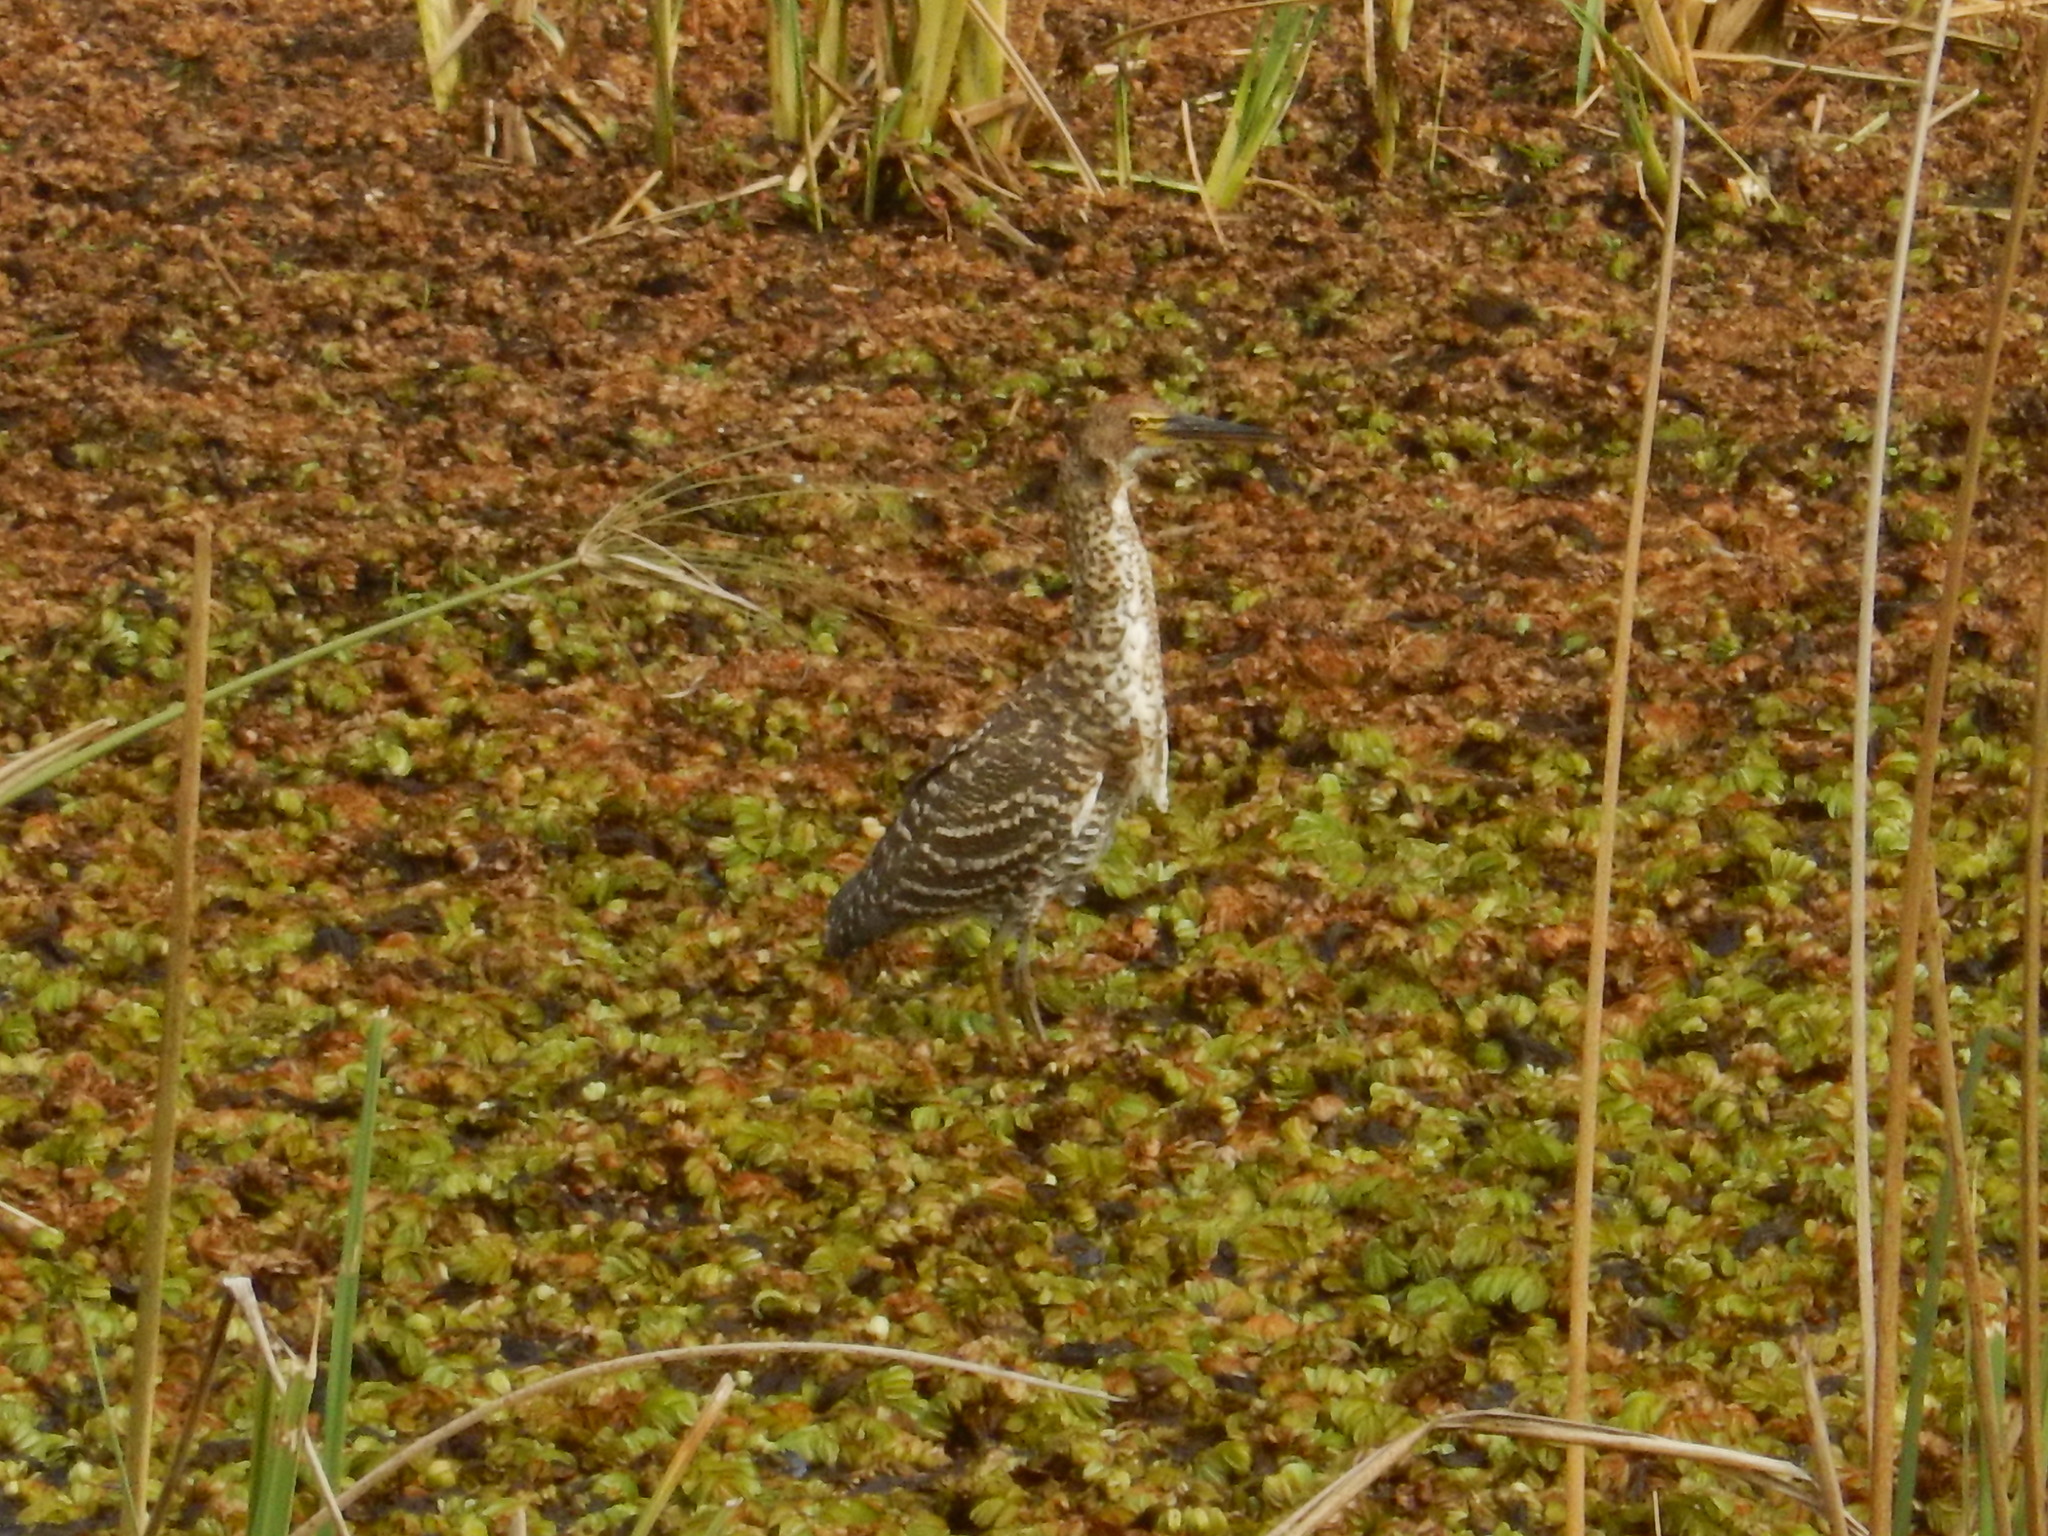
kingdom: Animalia
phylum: Chordata
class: Aves
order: Pelecaniformes
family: Ardeidae
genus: Tigrisoma
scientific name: Tigrisoma lineatum
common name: Rufescent tiger-heron
